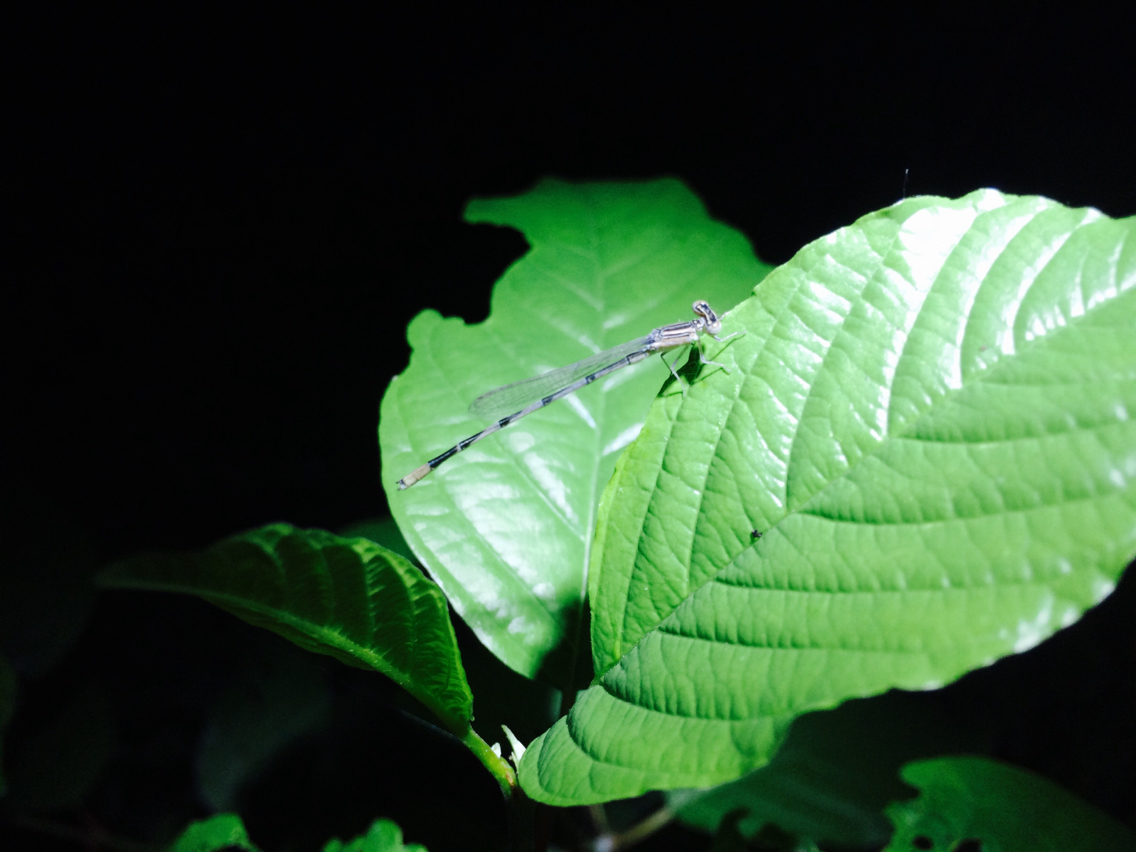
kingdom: Animalia
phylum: Arthropoda
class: Insecta
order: Odonata
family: Coenagrionidae
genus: Enallagma
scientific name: Enallagma basidens
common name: Double-striped bluet
